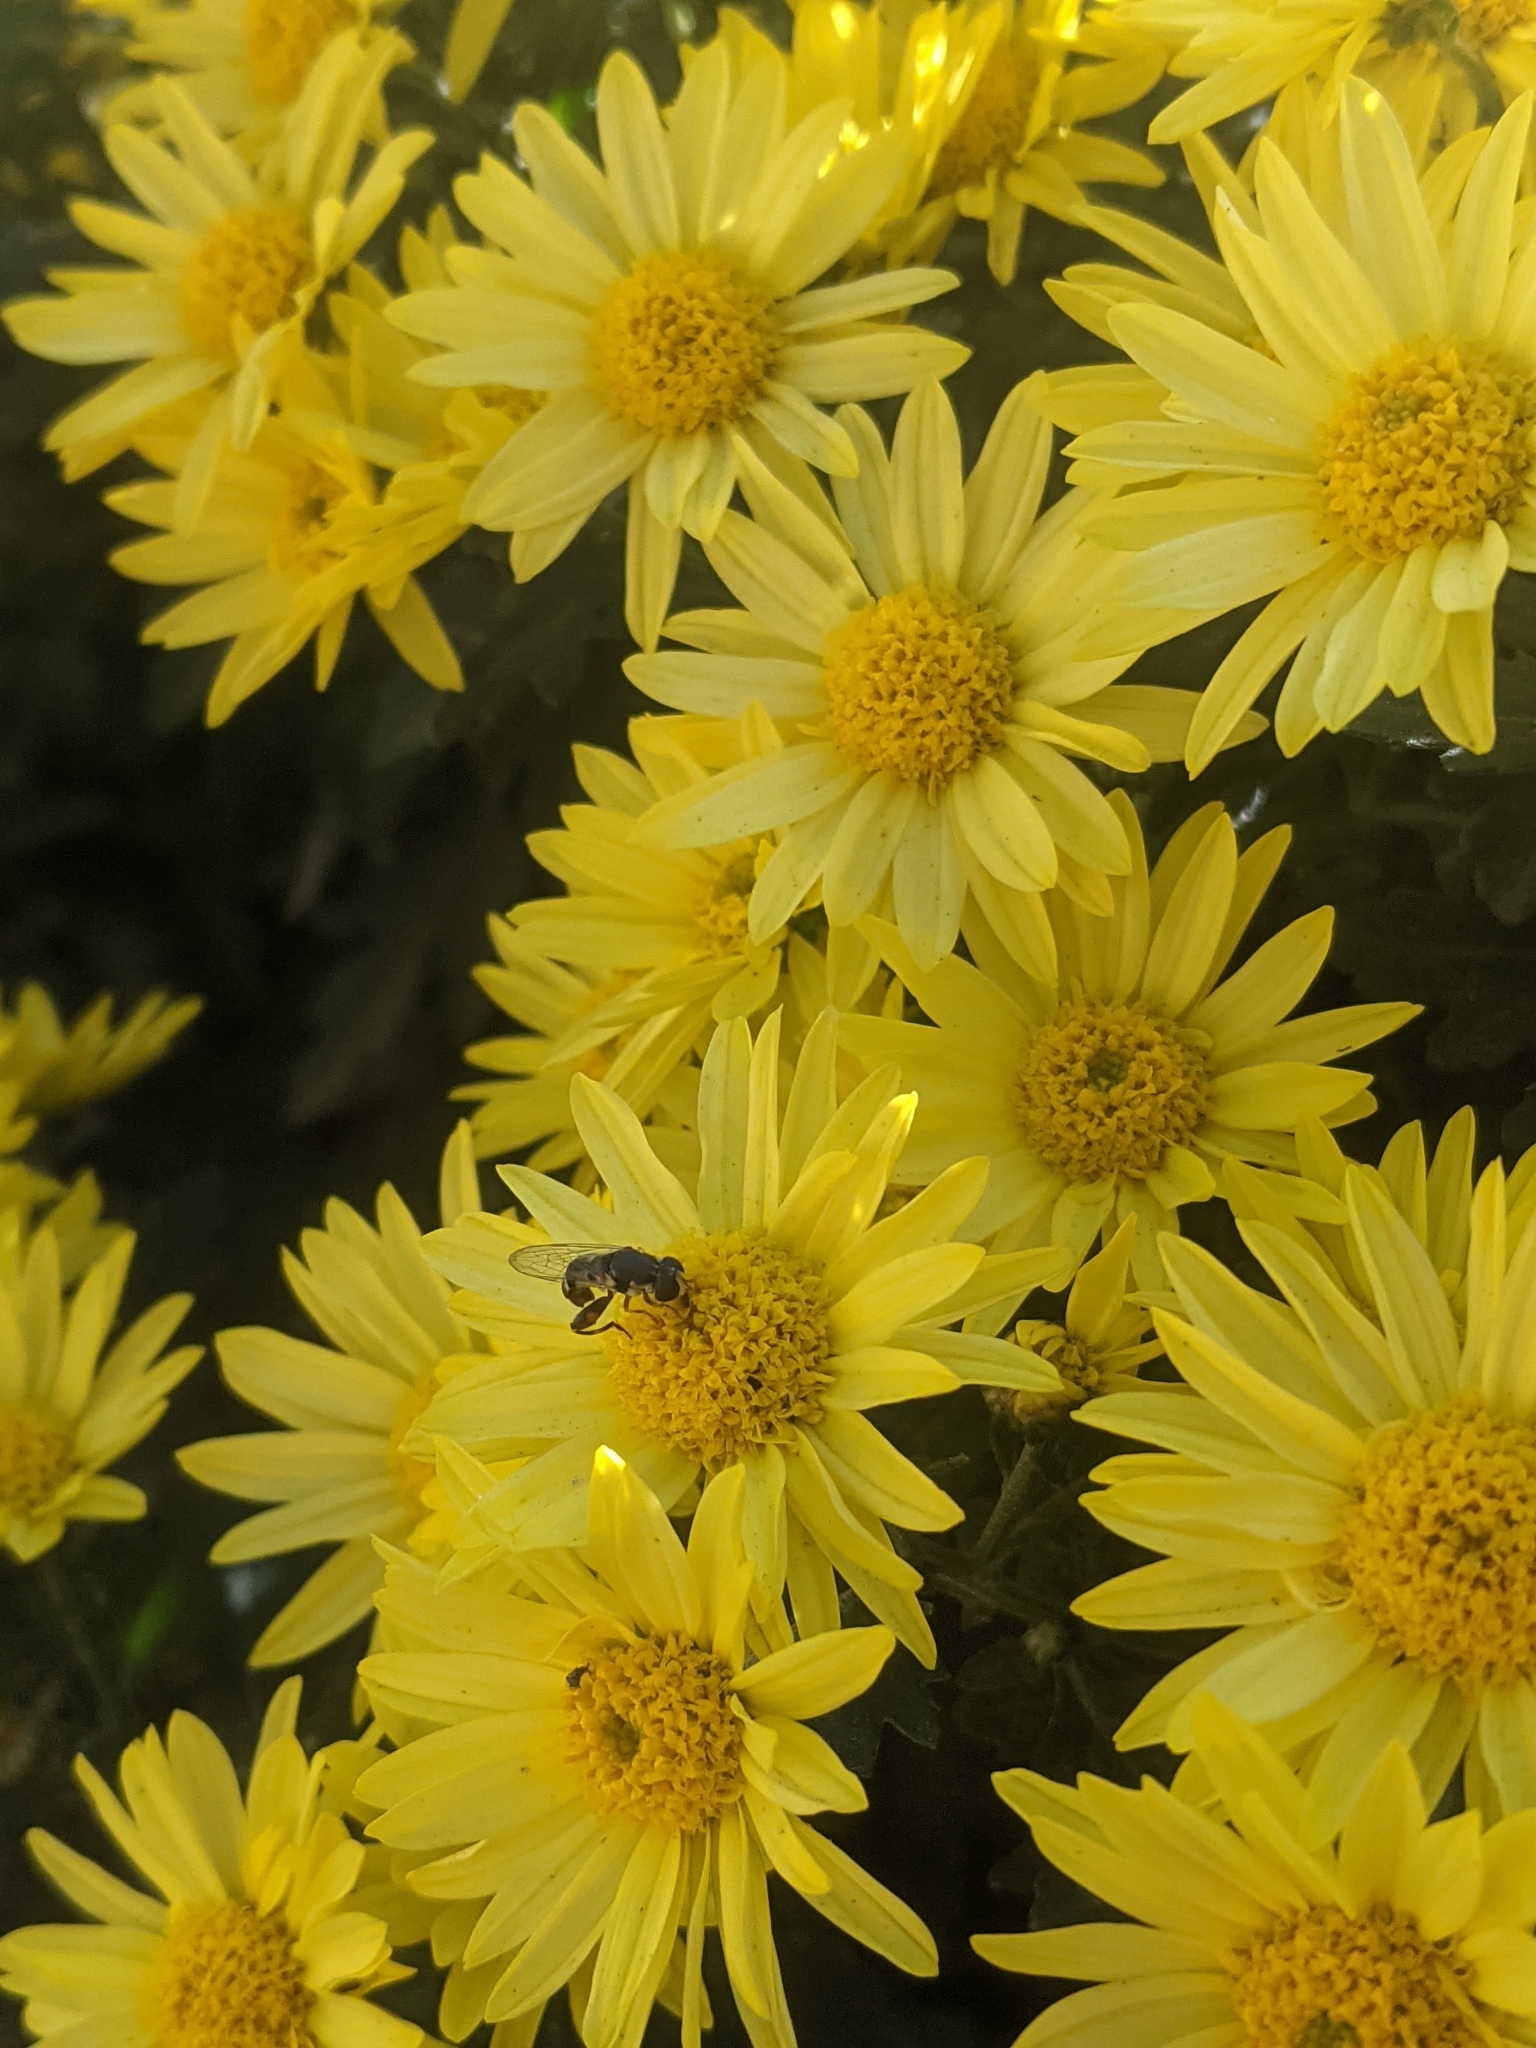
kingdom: Animalia
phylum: Arthropoda
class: Insecta
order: Diptera
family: Syrphidae
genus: Syritta
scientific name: Syritta pipiens
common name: Hover fly
